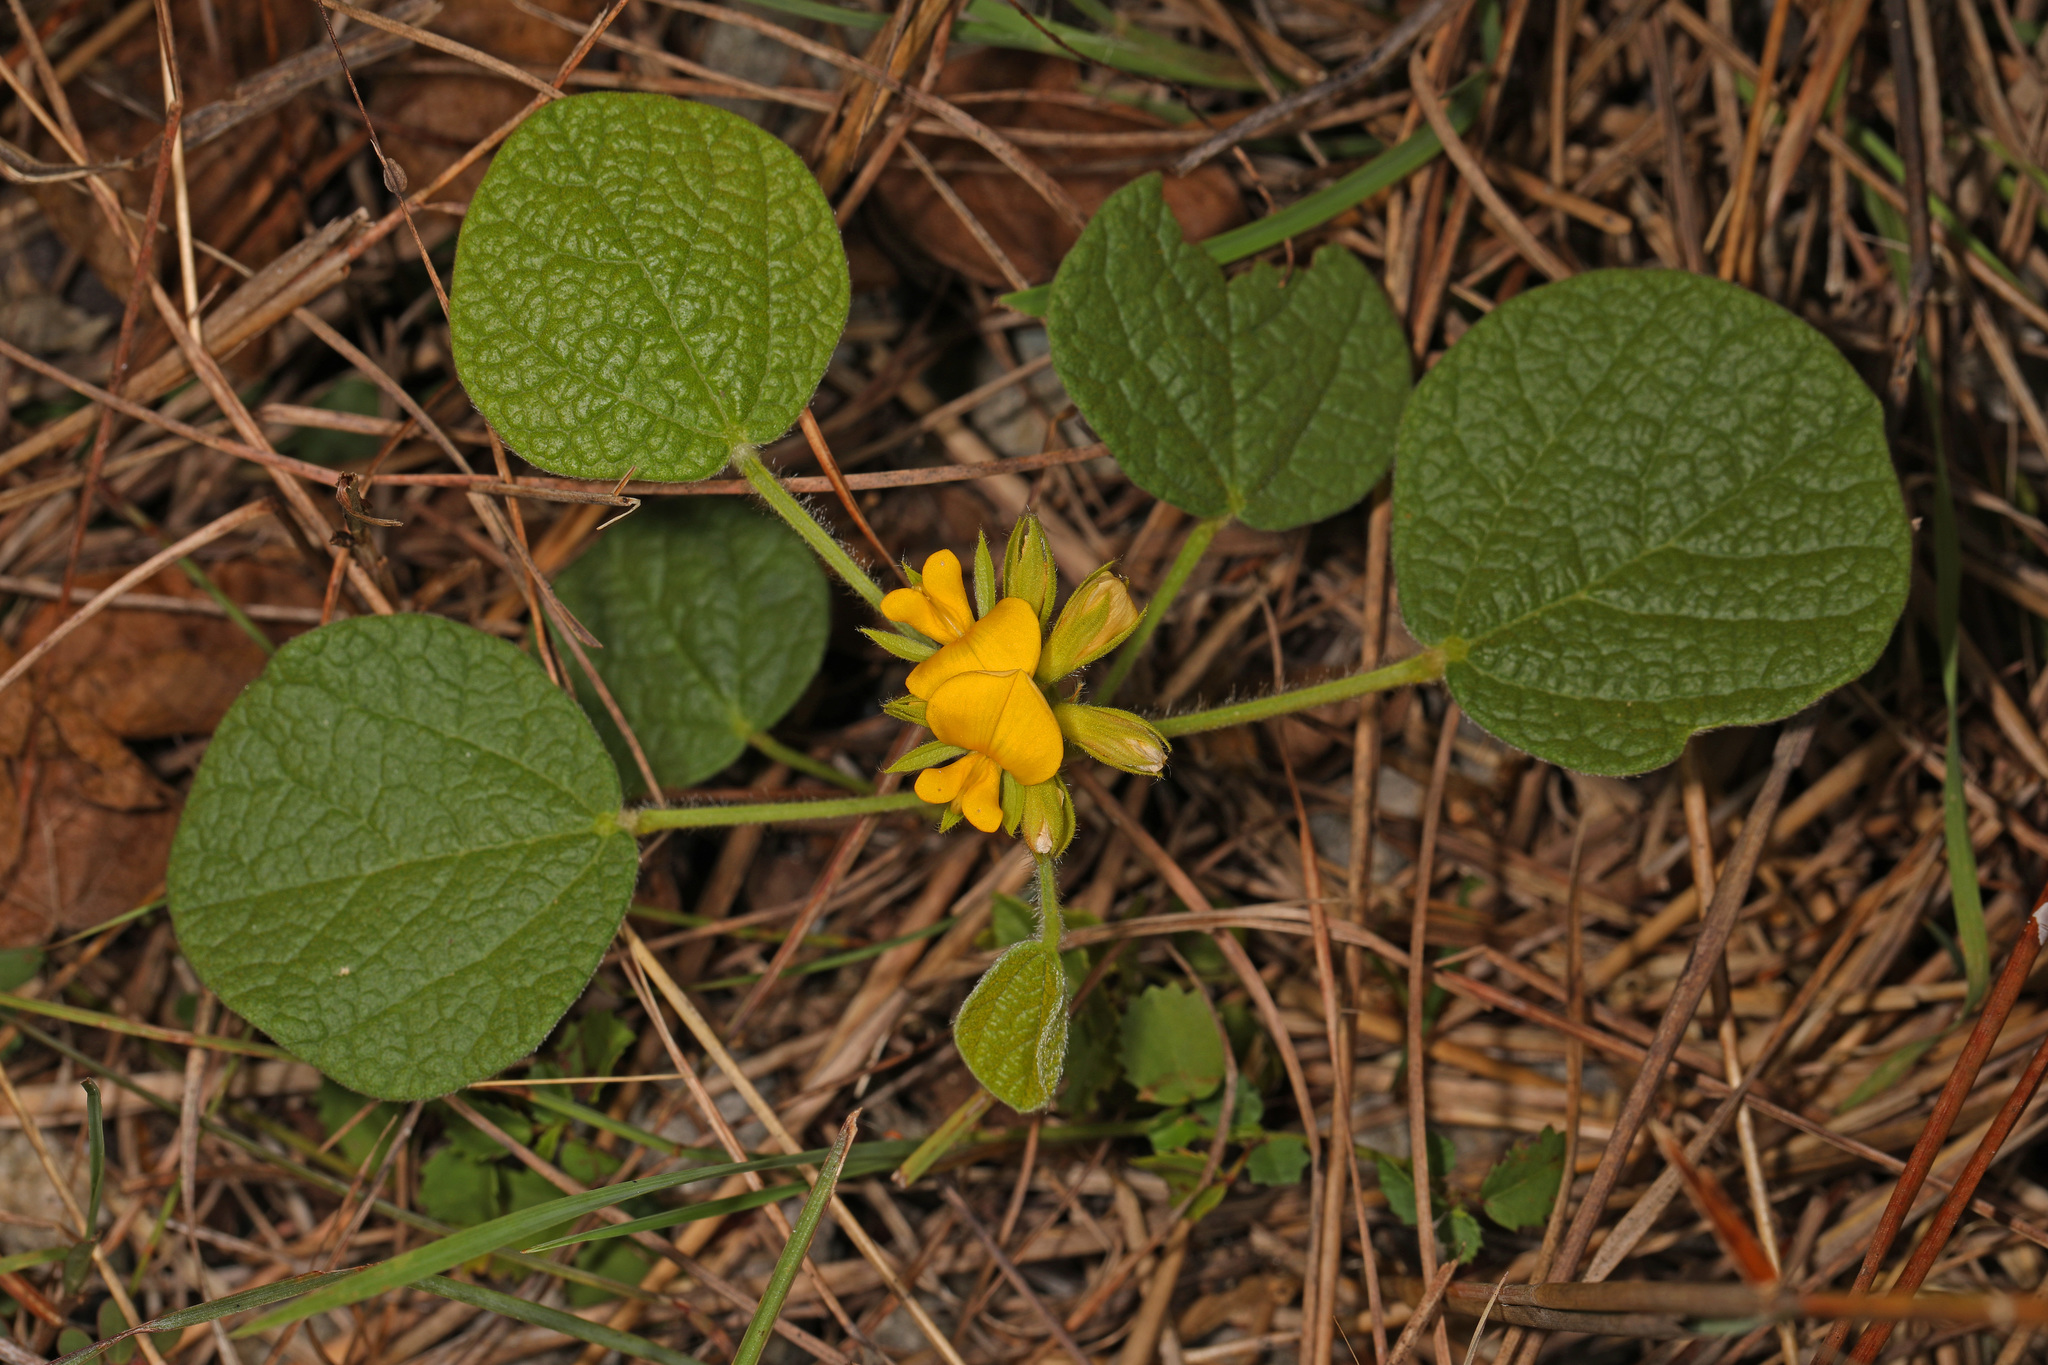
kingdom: Plantae
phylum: Tracheophyta
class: Magnoliopsida
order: Fabales
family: Fabaceae
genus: Rhynchosia
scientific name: Rhynchosia reniformis
